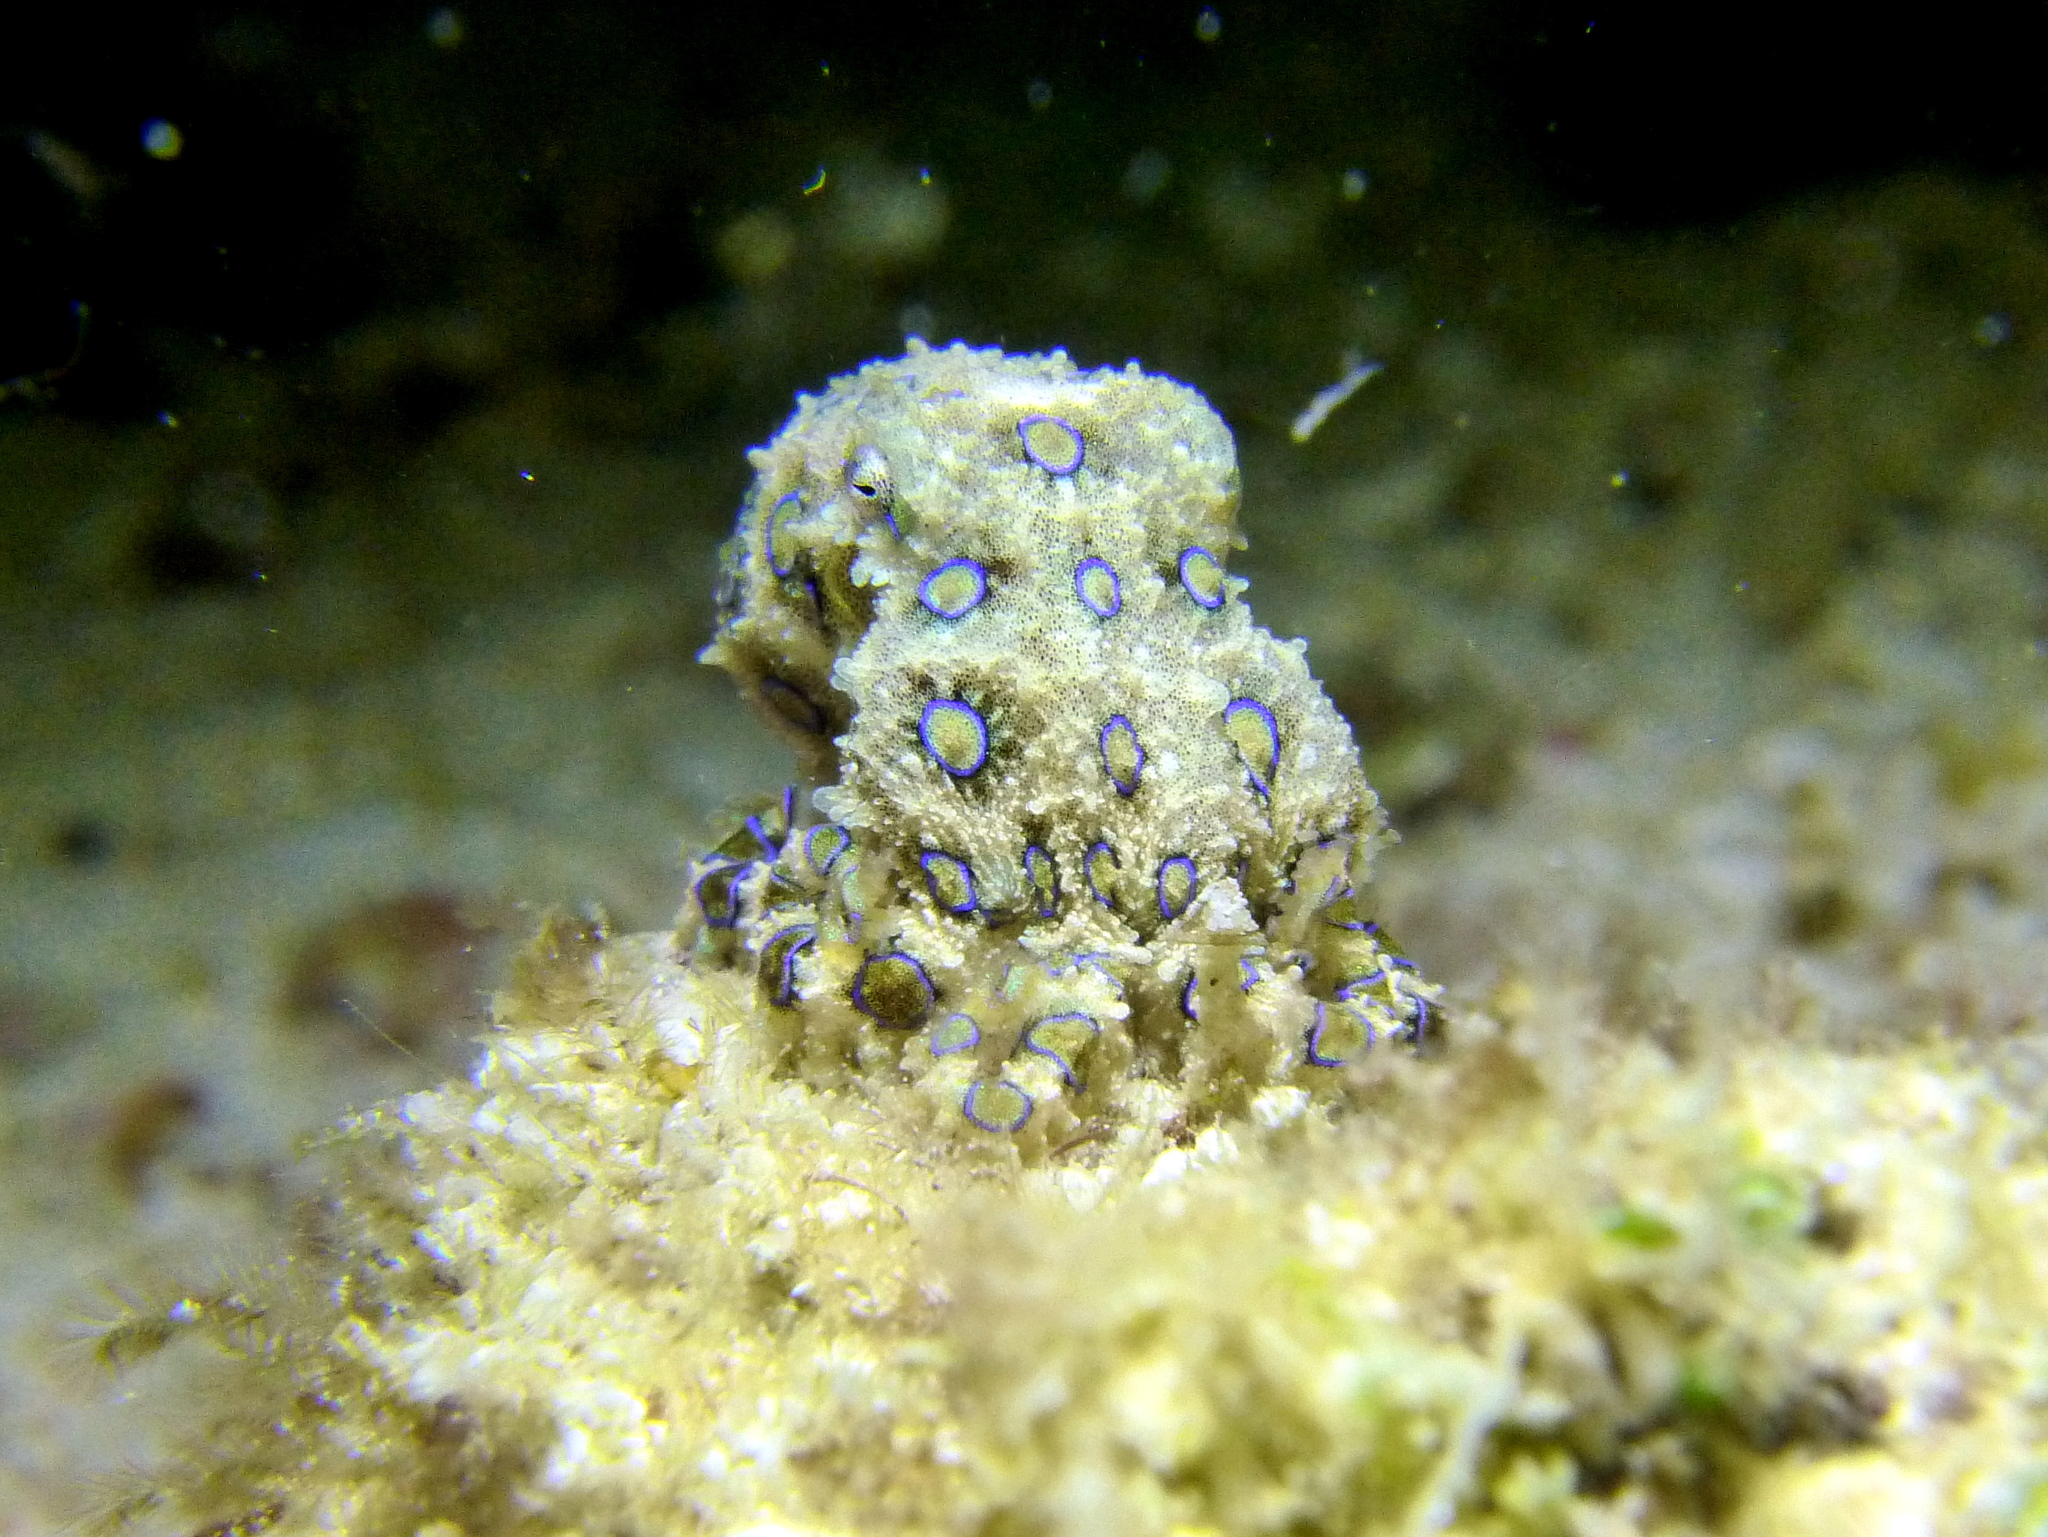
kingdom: Animalia
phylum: Mollusca
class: Cephalopoda
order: Octopoda
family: Octopodidae
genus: Hapalochlaena
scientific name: Hapalochlaena lunulata
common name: Greater blue-ringed octopus
